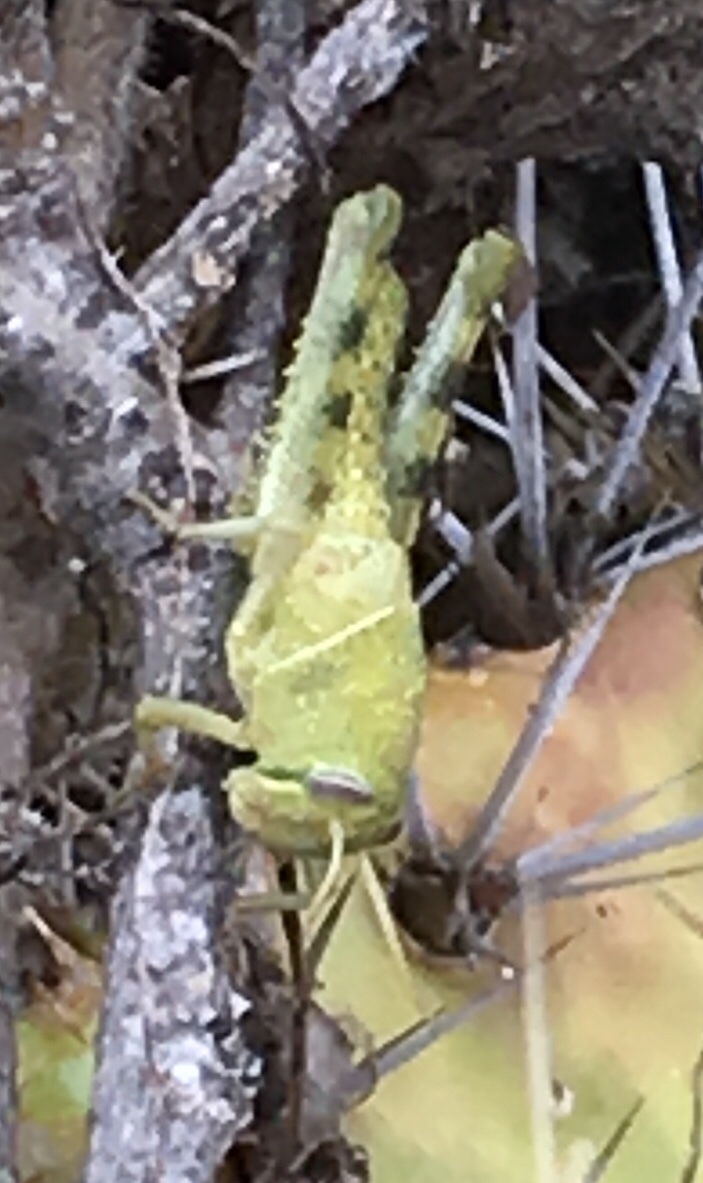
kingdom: Animalia
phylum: Arthropoda
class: Insecta
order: Orthoptera
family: Acrididae
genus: Schistocerca
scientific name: Schistocerca nitens
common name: Vagrant grasshopper
